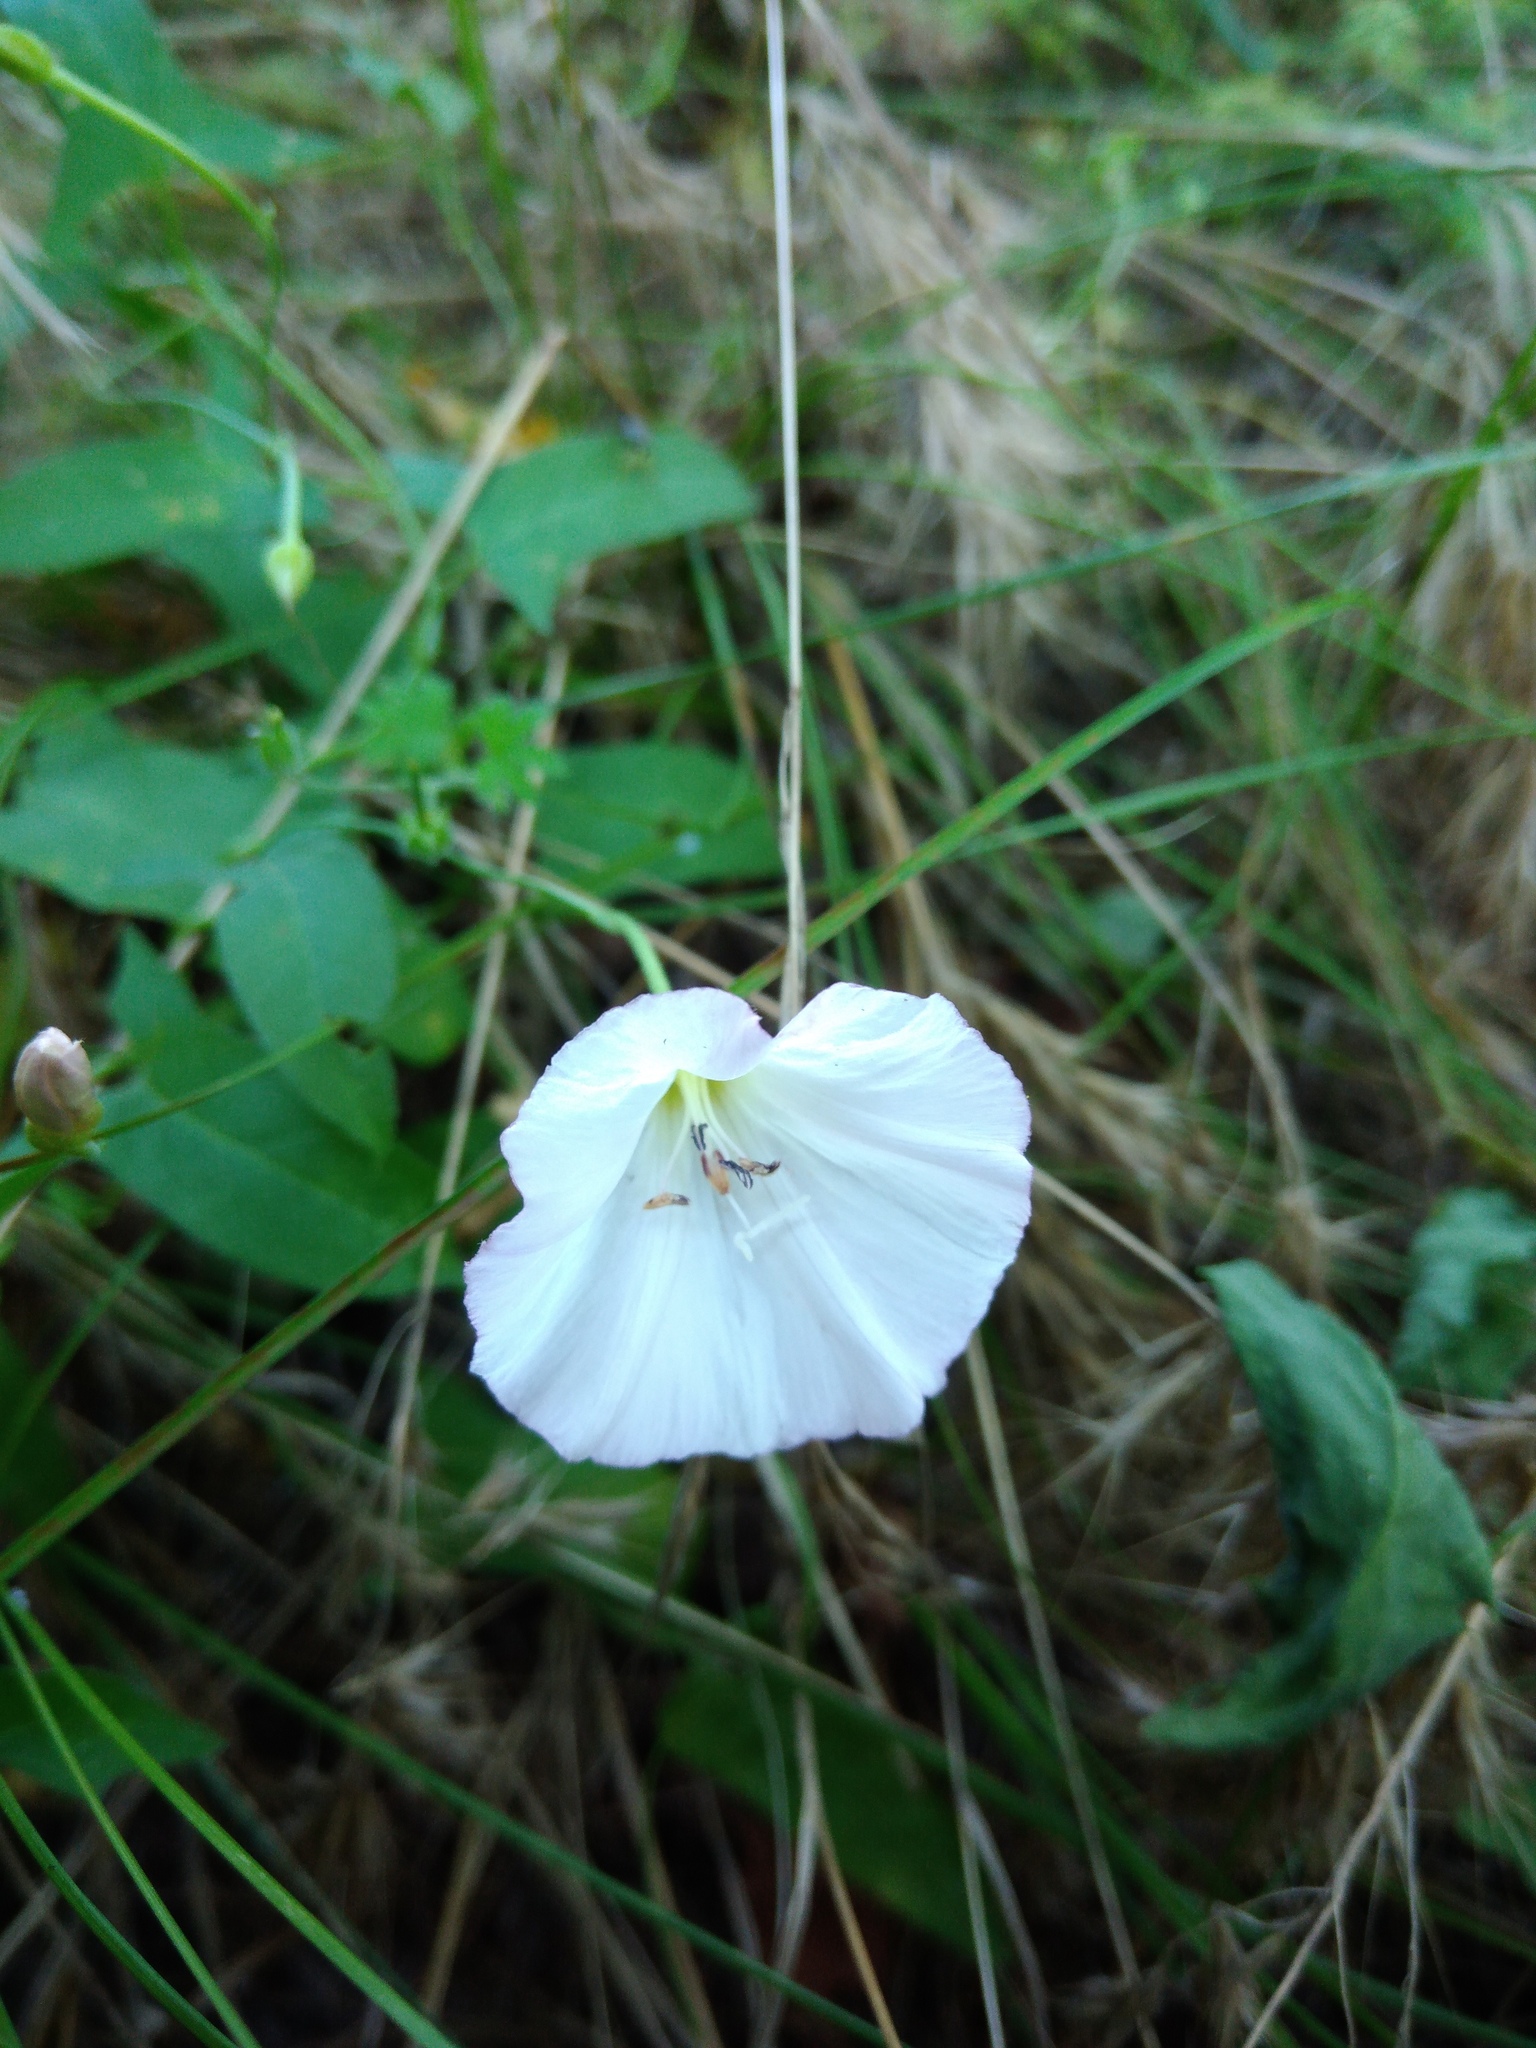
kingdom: Plantae
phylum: Tracheophyta
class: Magnoliopsida
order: Solanales
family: Convolvulaceae
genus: Convolvulus
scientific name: Convolvulus arvensis
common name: Field bindweed
